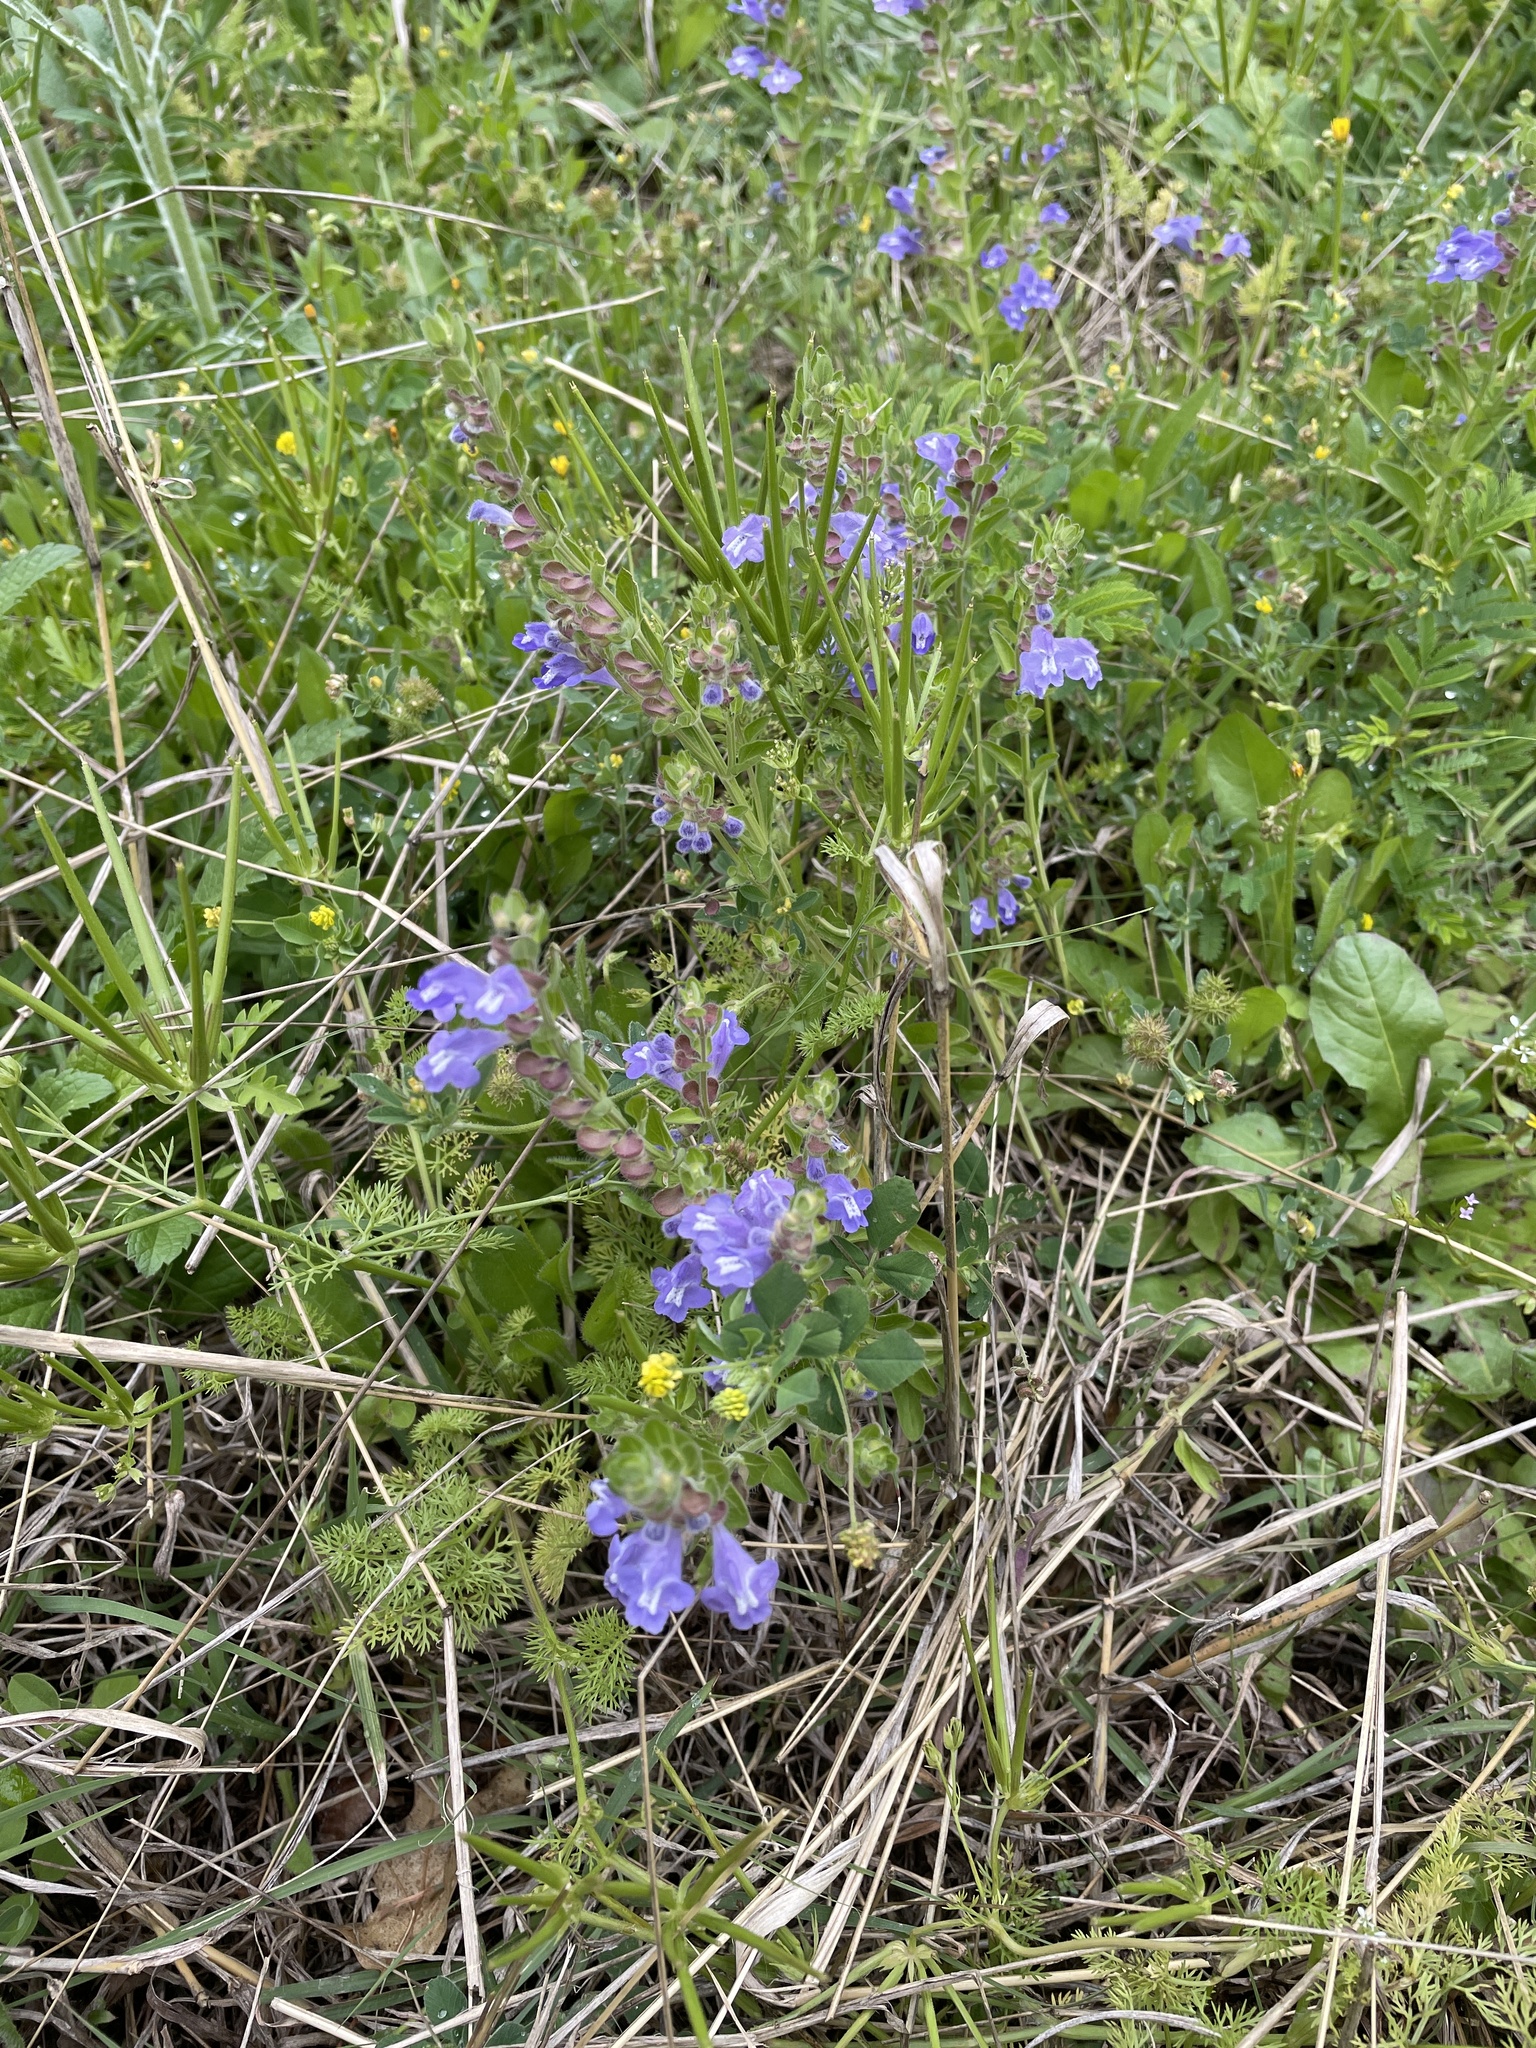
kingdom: Plantae
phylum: Tracheophyta
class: Magnoliopsida
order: Lamiales
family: Lamiaceae
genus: Scutellaria
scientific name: Scutellaria drummondii
